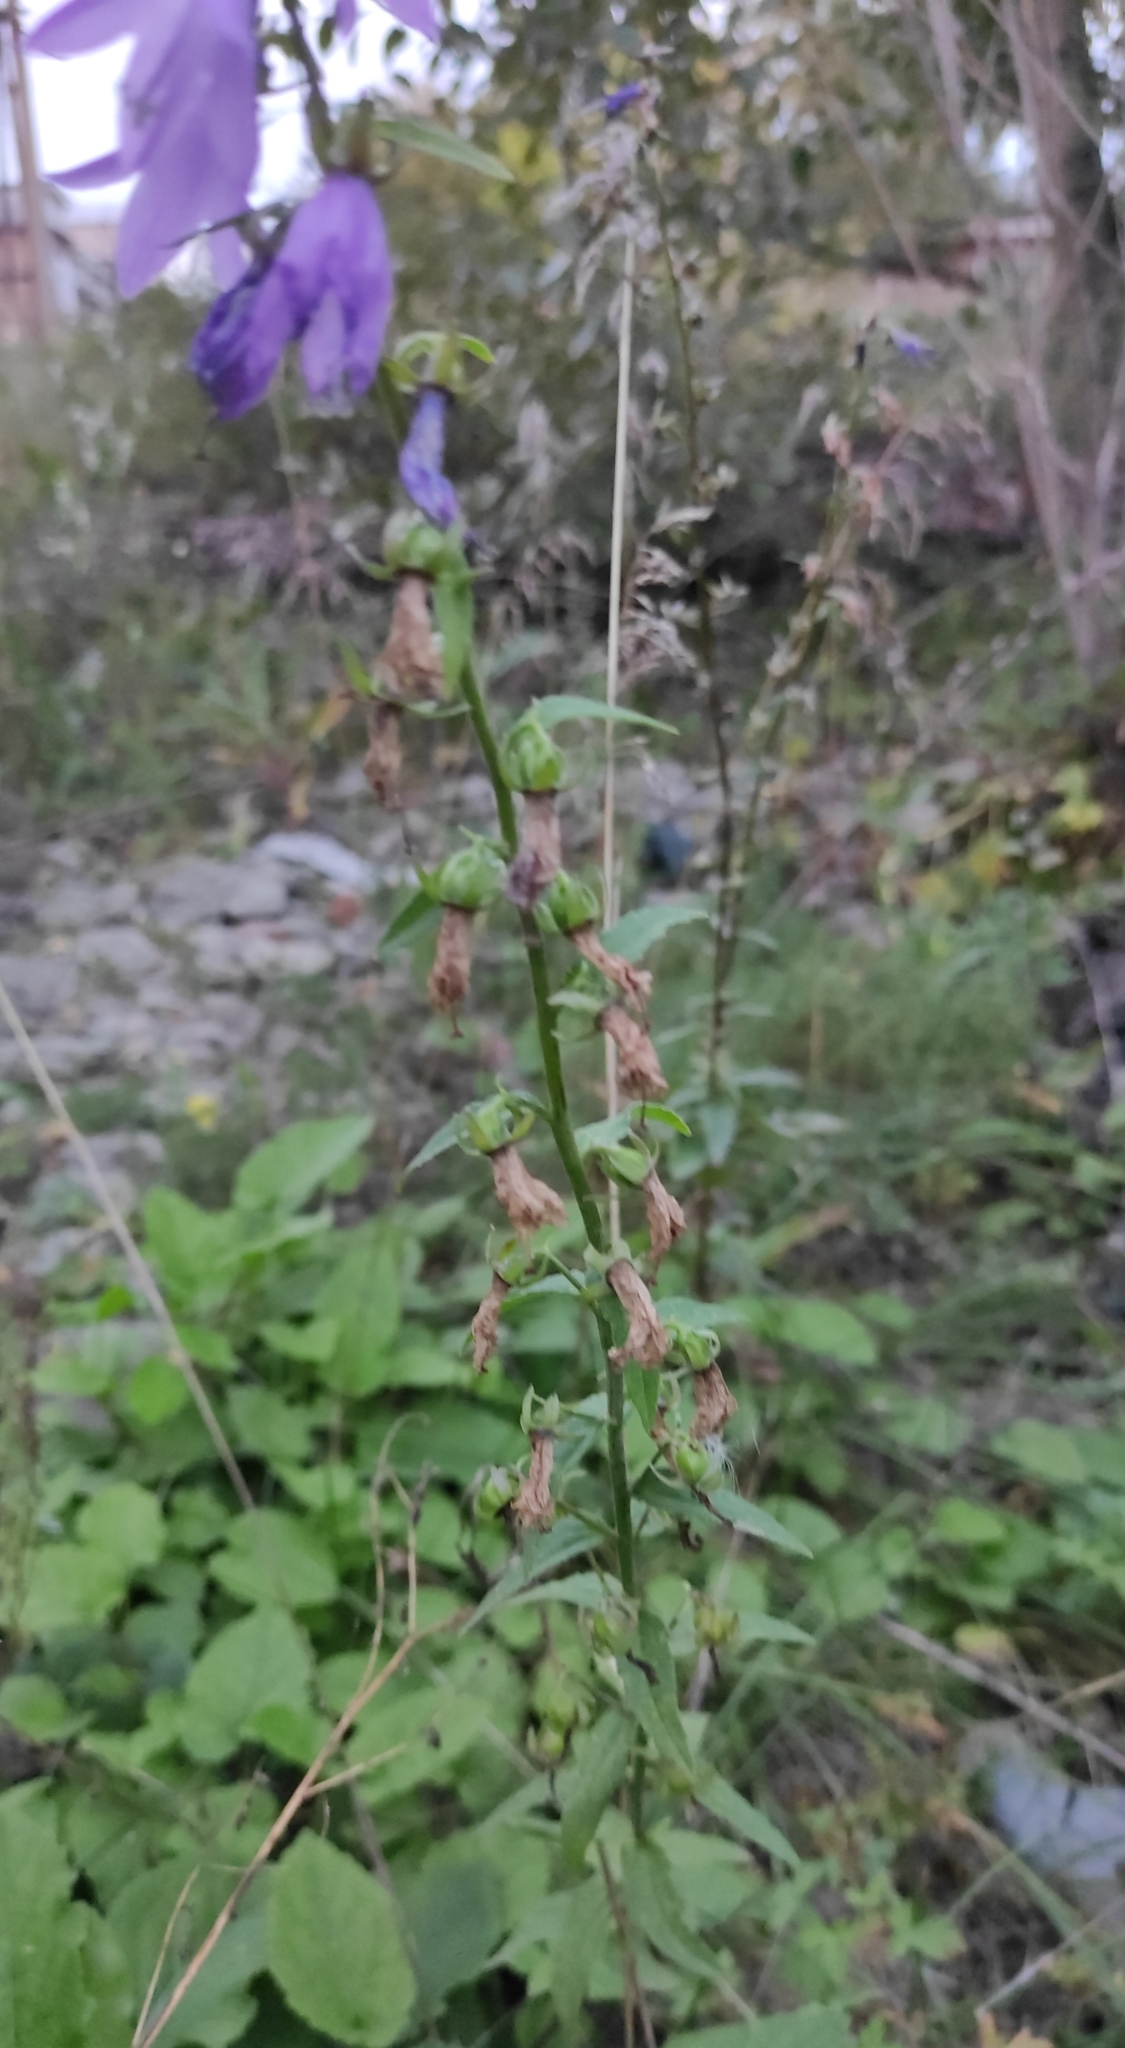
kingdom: Plantae
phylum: Tracheophyta
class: Magnoliopsida
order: Asterales
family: Campanulaceae
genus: Campanula
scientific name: Campanula rapunculoides
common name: Creeping bellflower
